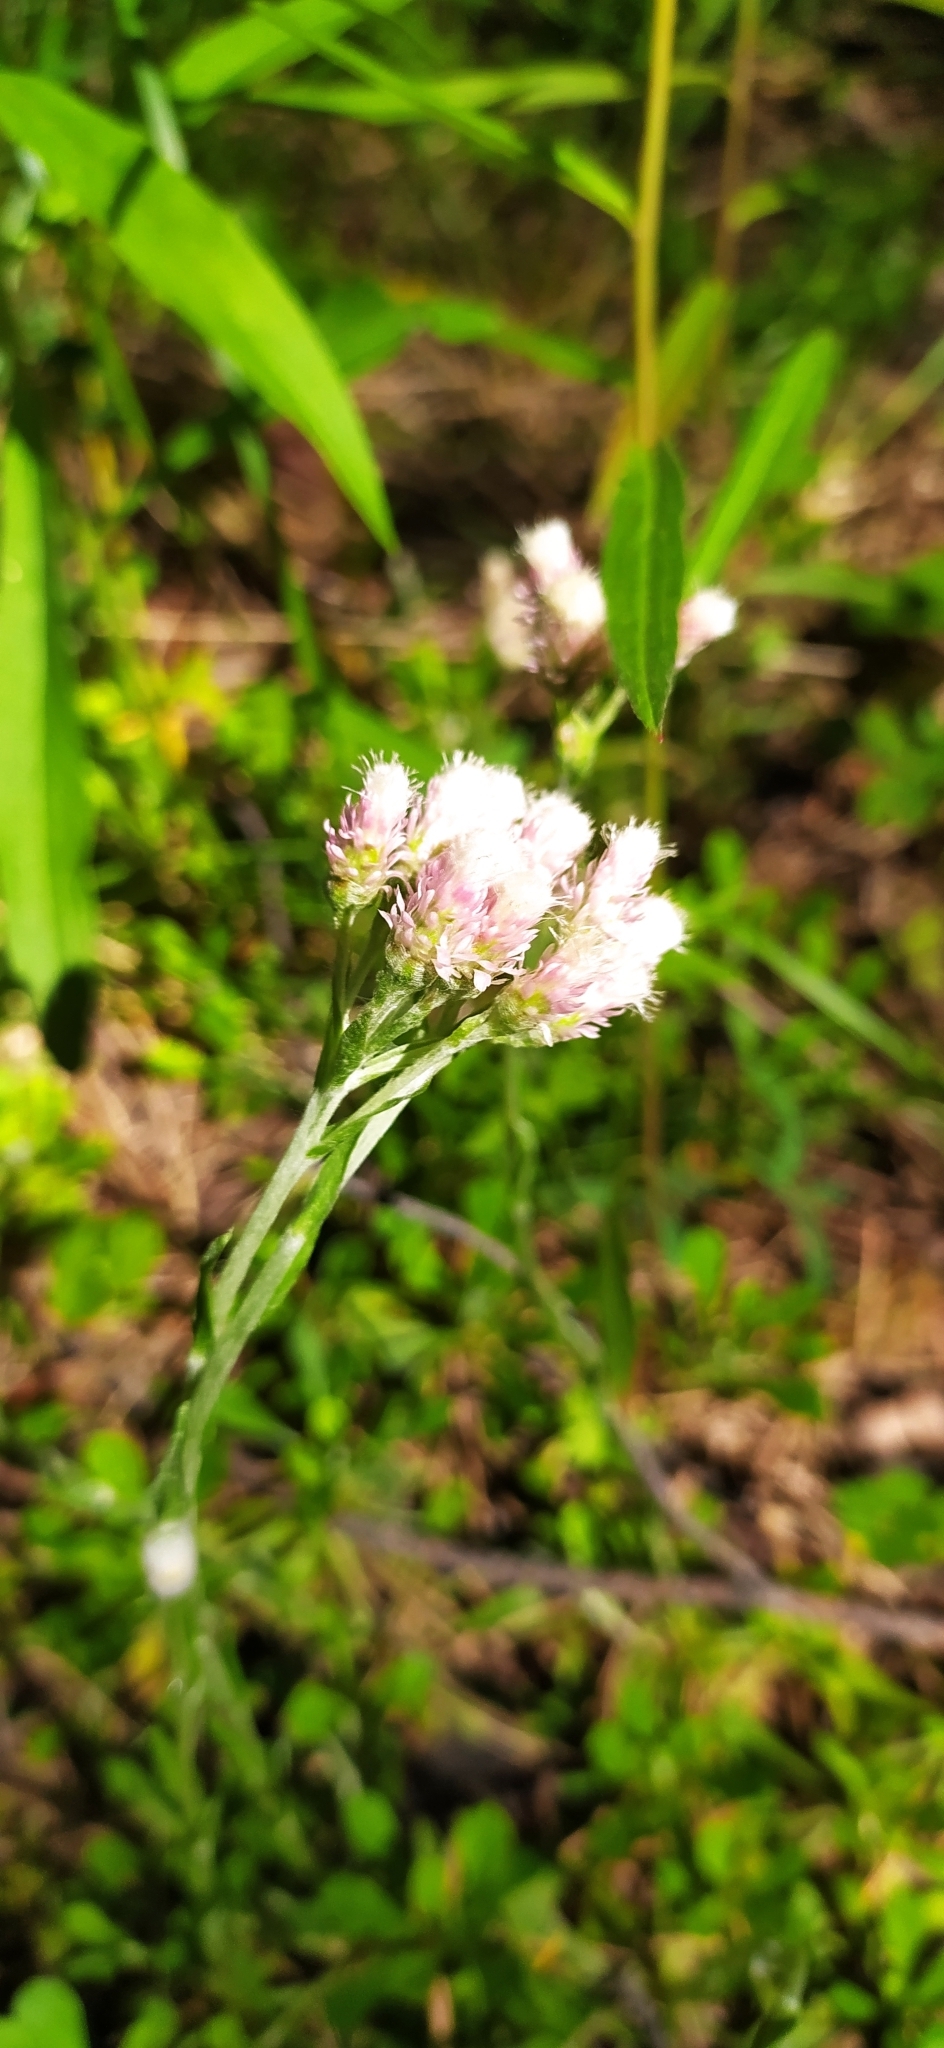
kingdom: Plantae
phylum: Tracheophyta
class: Magnoliopsida
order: Asterales
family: Asteraceae
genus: Antennaria
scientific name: Antennaria dioica
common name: Mountain everlasting
